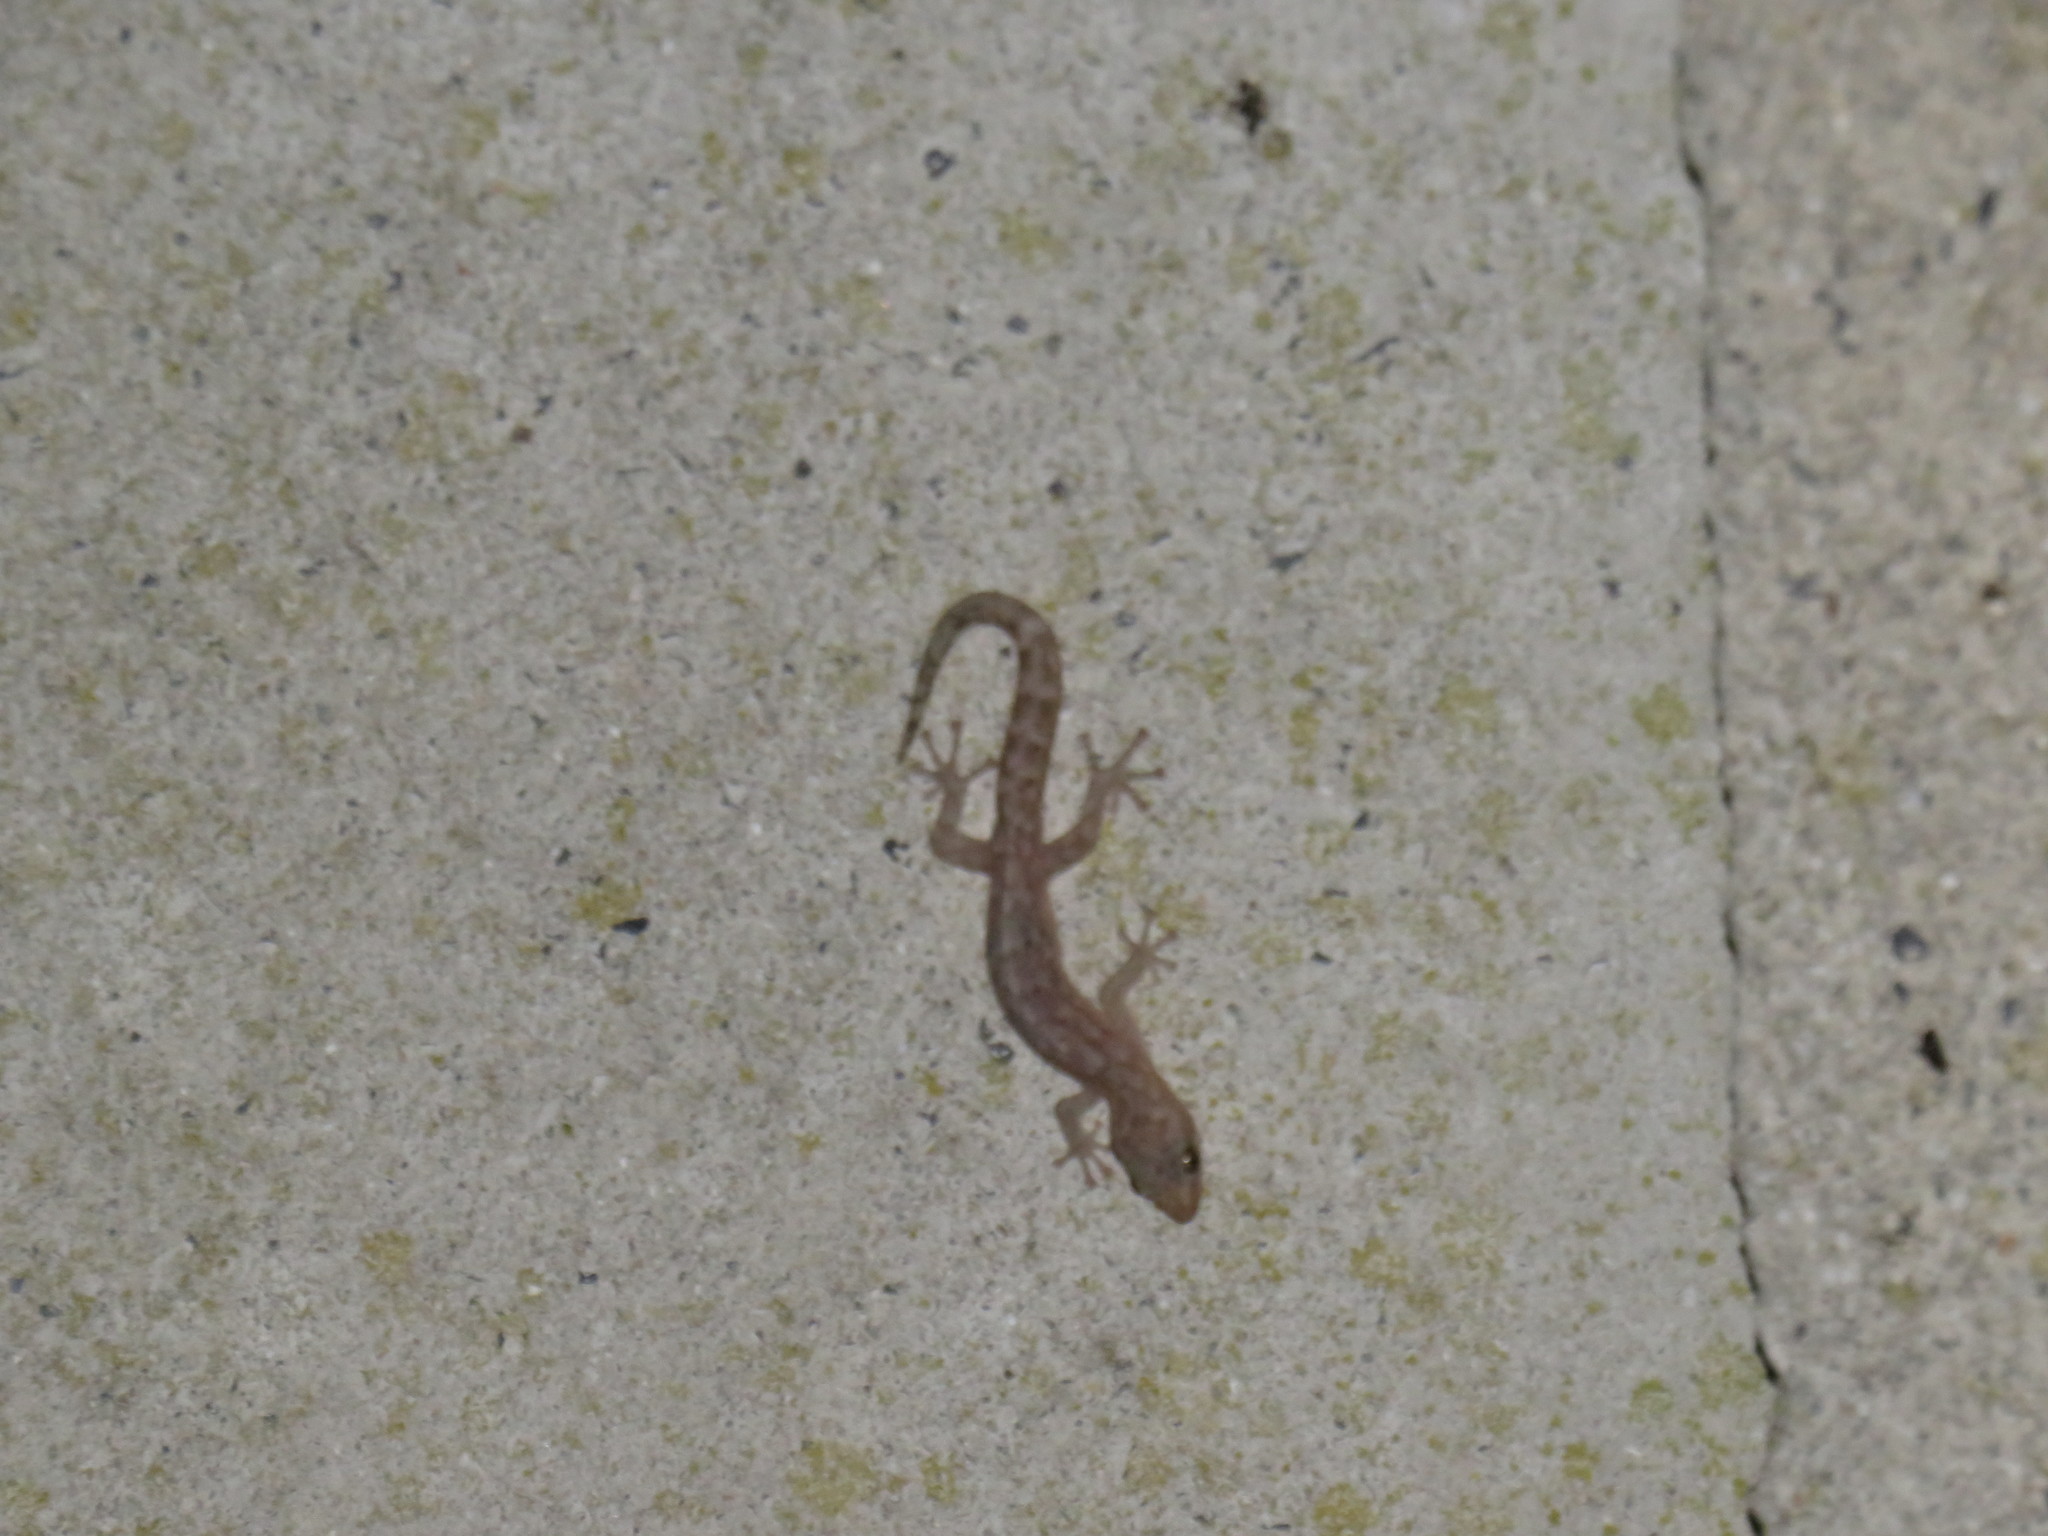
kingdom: Animalia
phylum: Chordata
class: Squamata
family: Gekkonidae
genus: Afrogecko
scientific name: Afrogecko porphyreus
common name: Marbled leaf-toed gecko
